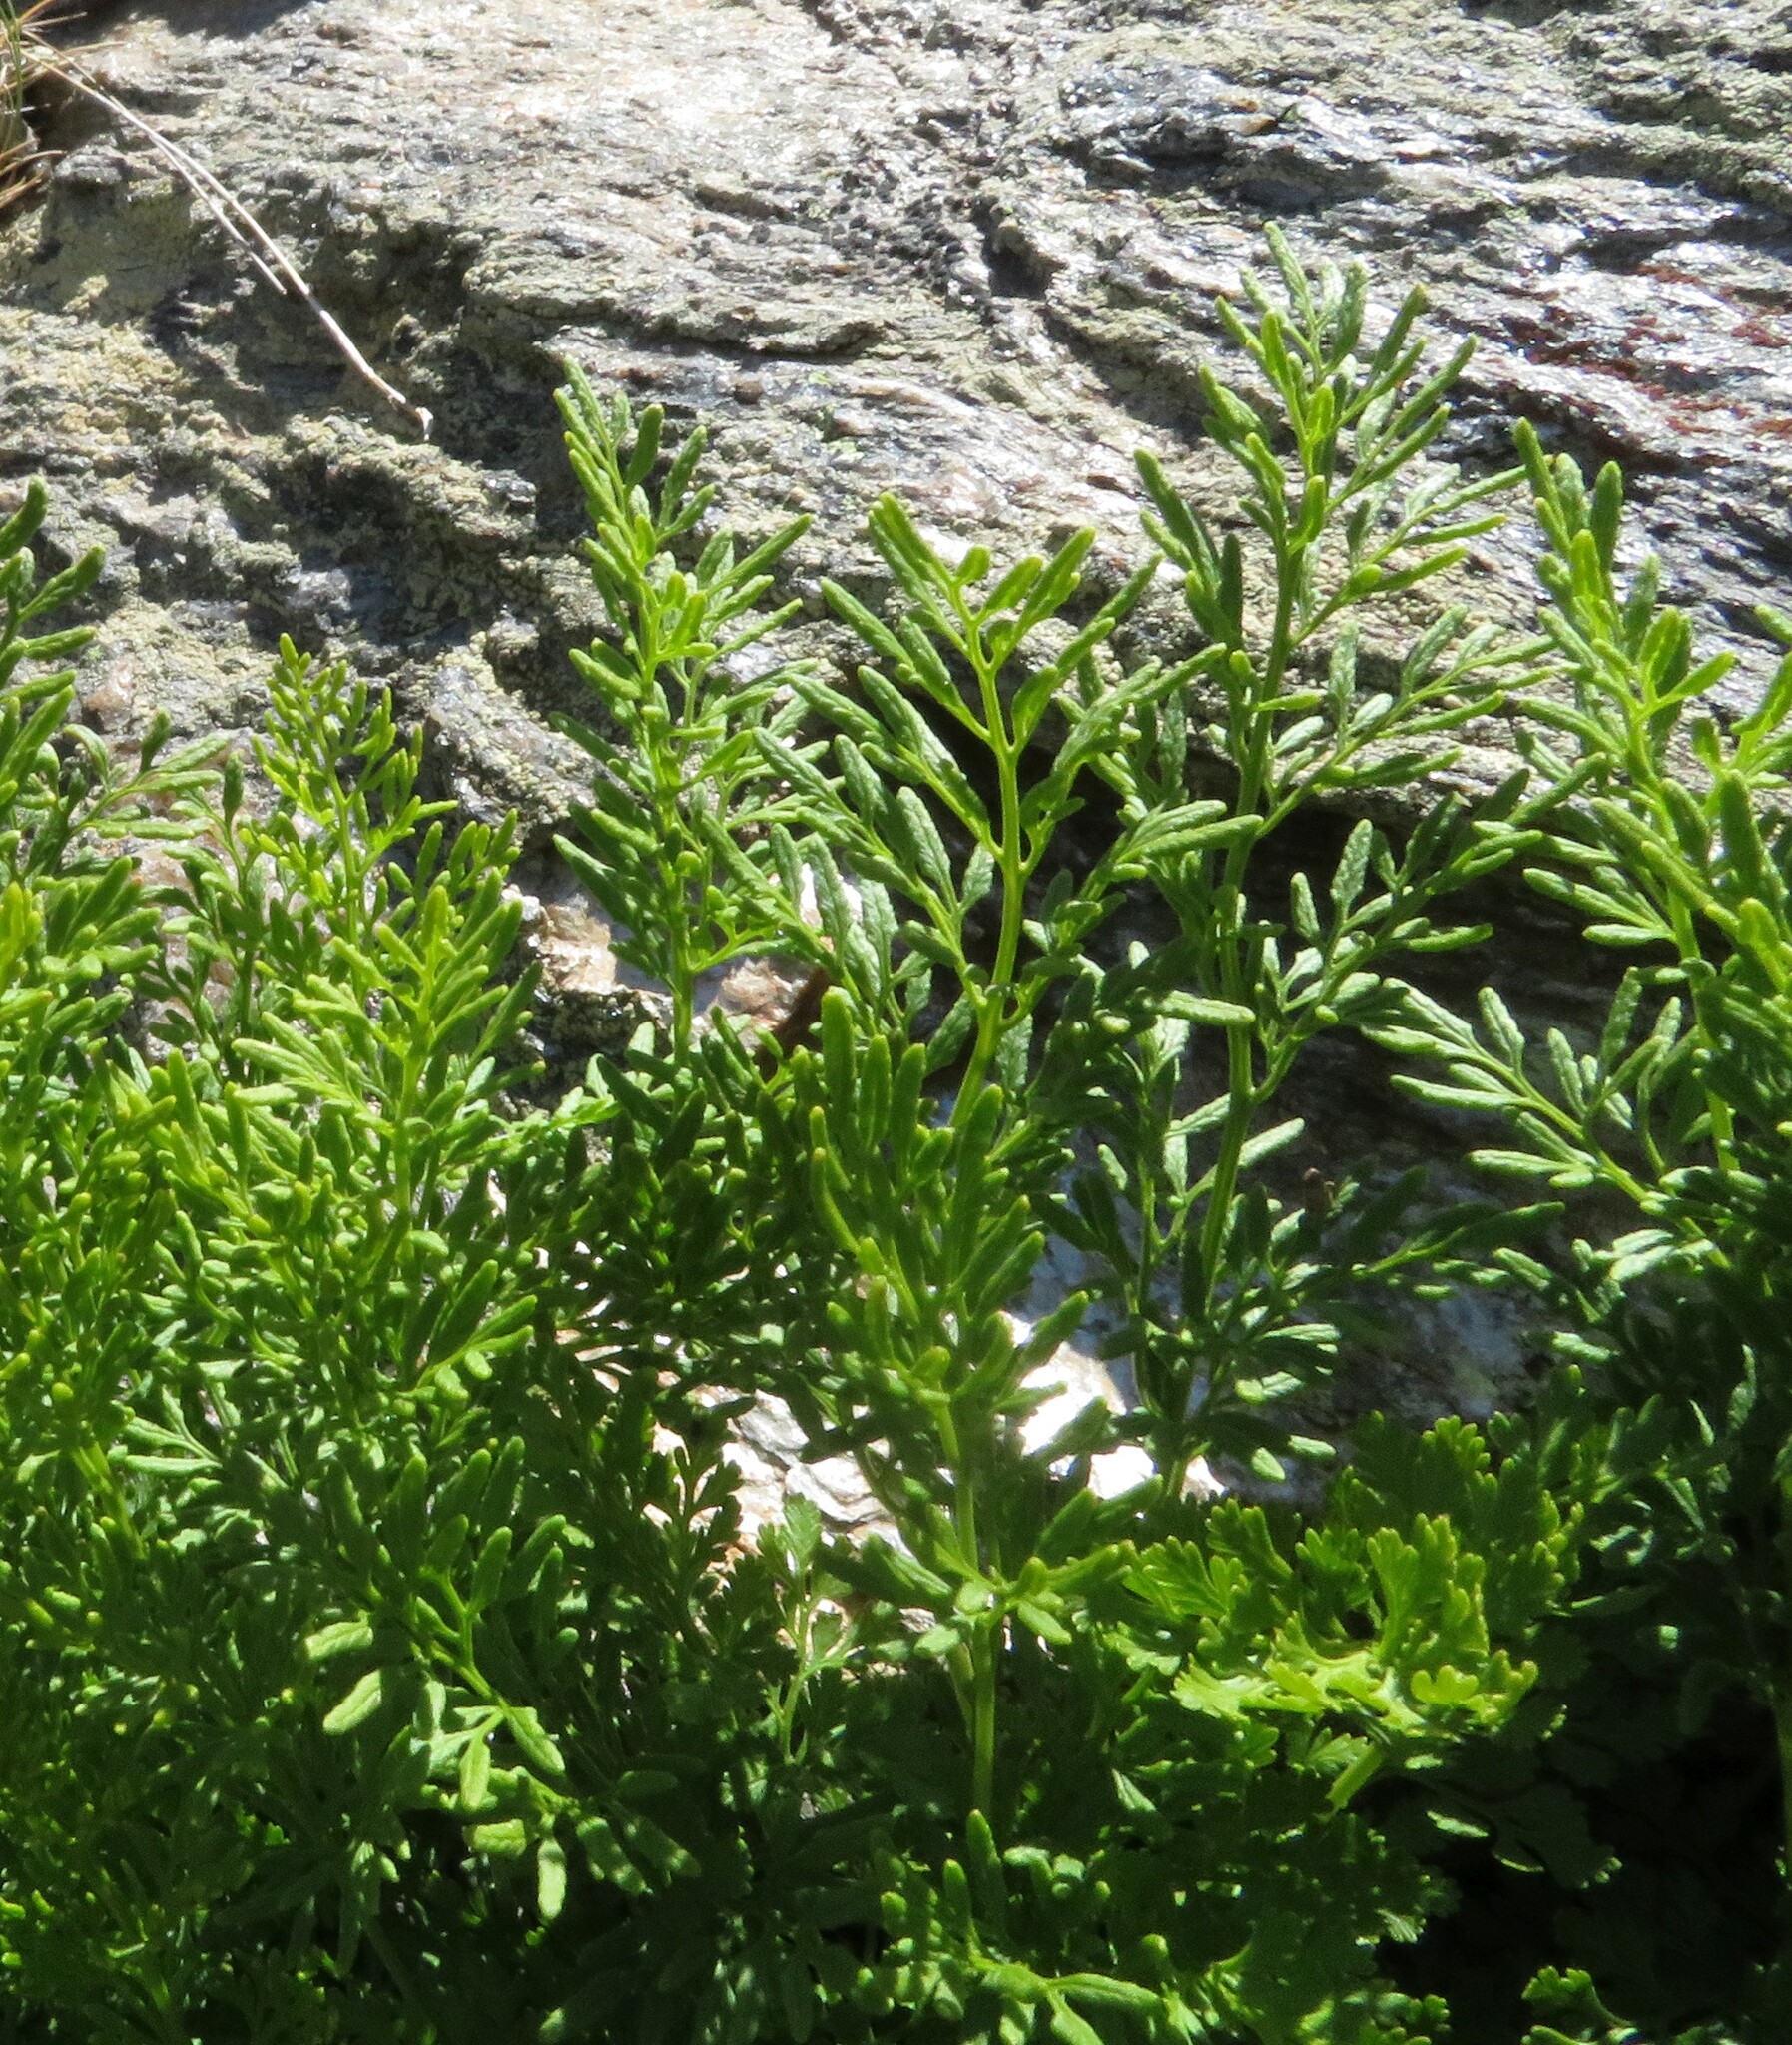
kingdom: Plantae
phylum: Tracheophyta
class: Polypodiopsida
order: Polypodiales
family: Pteridaceae
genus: Cryptogramma
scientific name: Cryptogramma crispa
